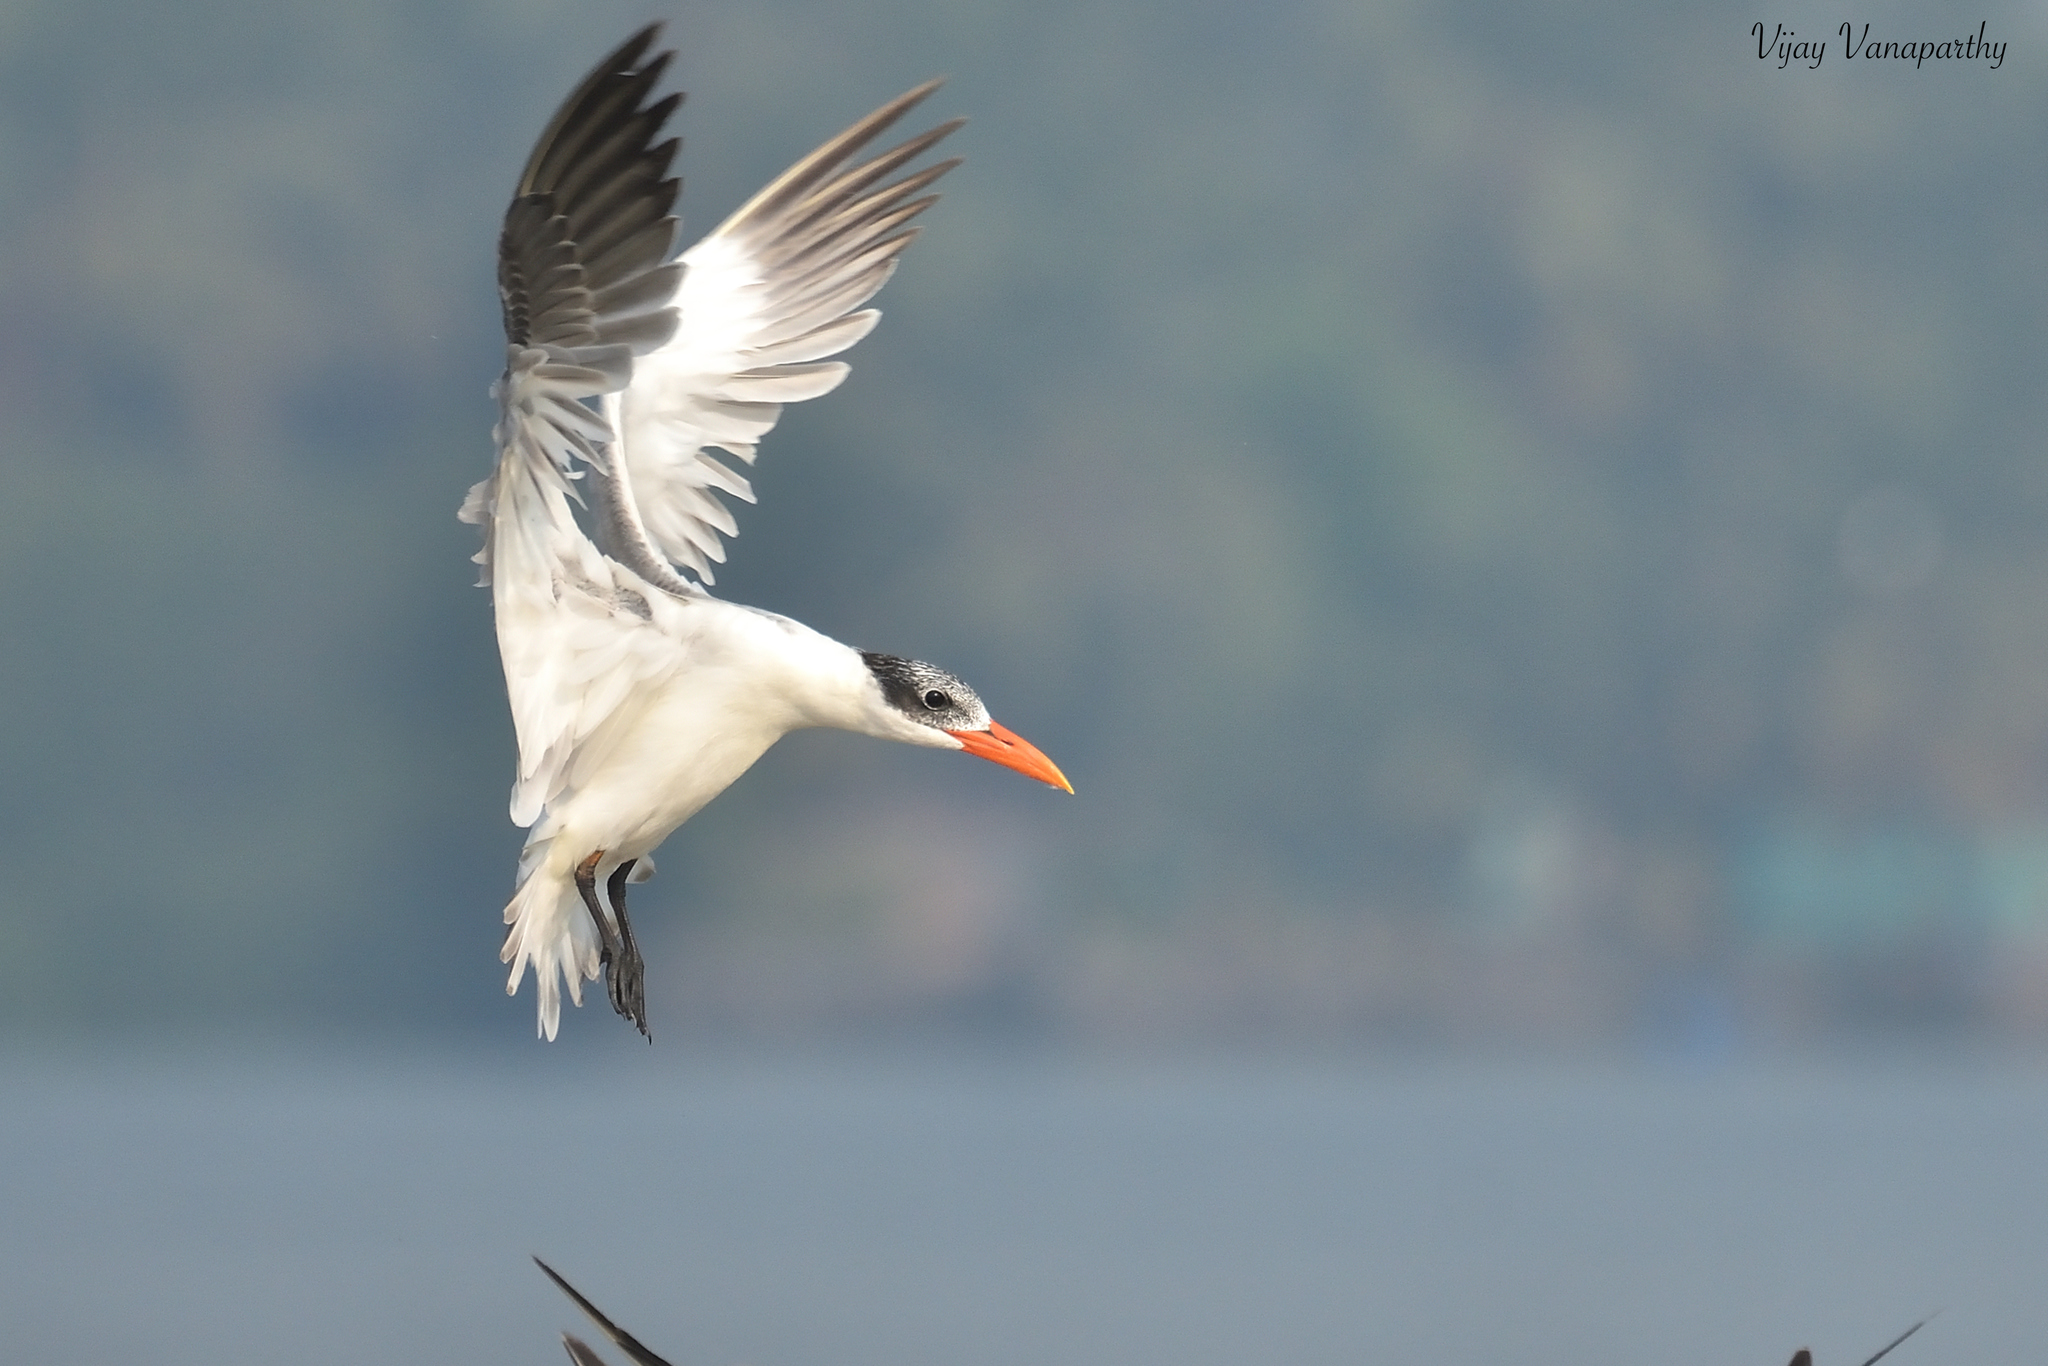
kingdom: Animalia
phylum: Chordata
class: Aves
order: Charadriiformes
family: Laridae
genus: Hydroprogne
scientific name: Hydroprogne caspia
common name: Caspian tern
